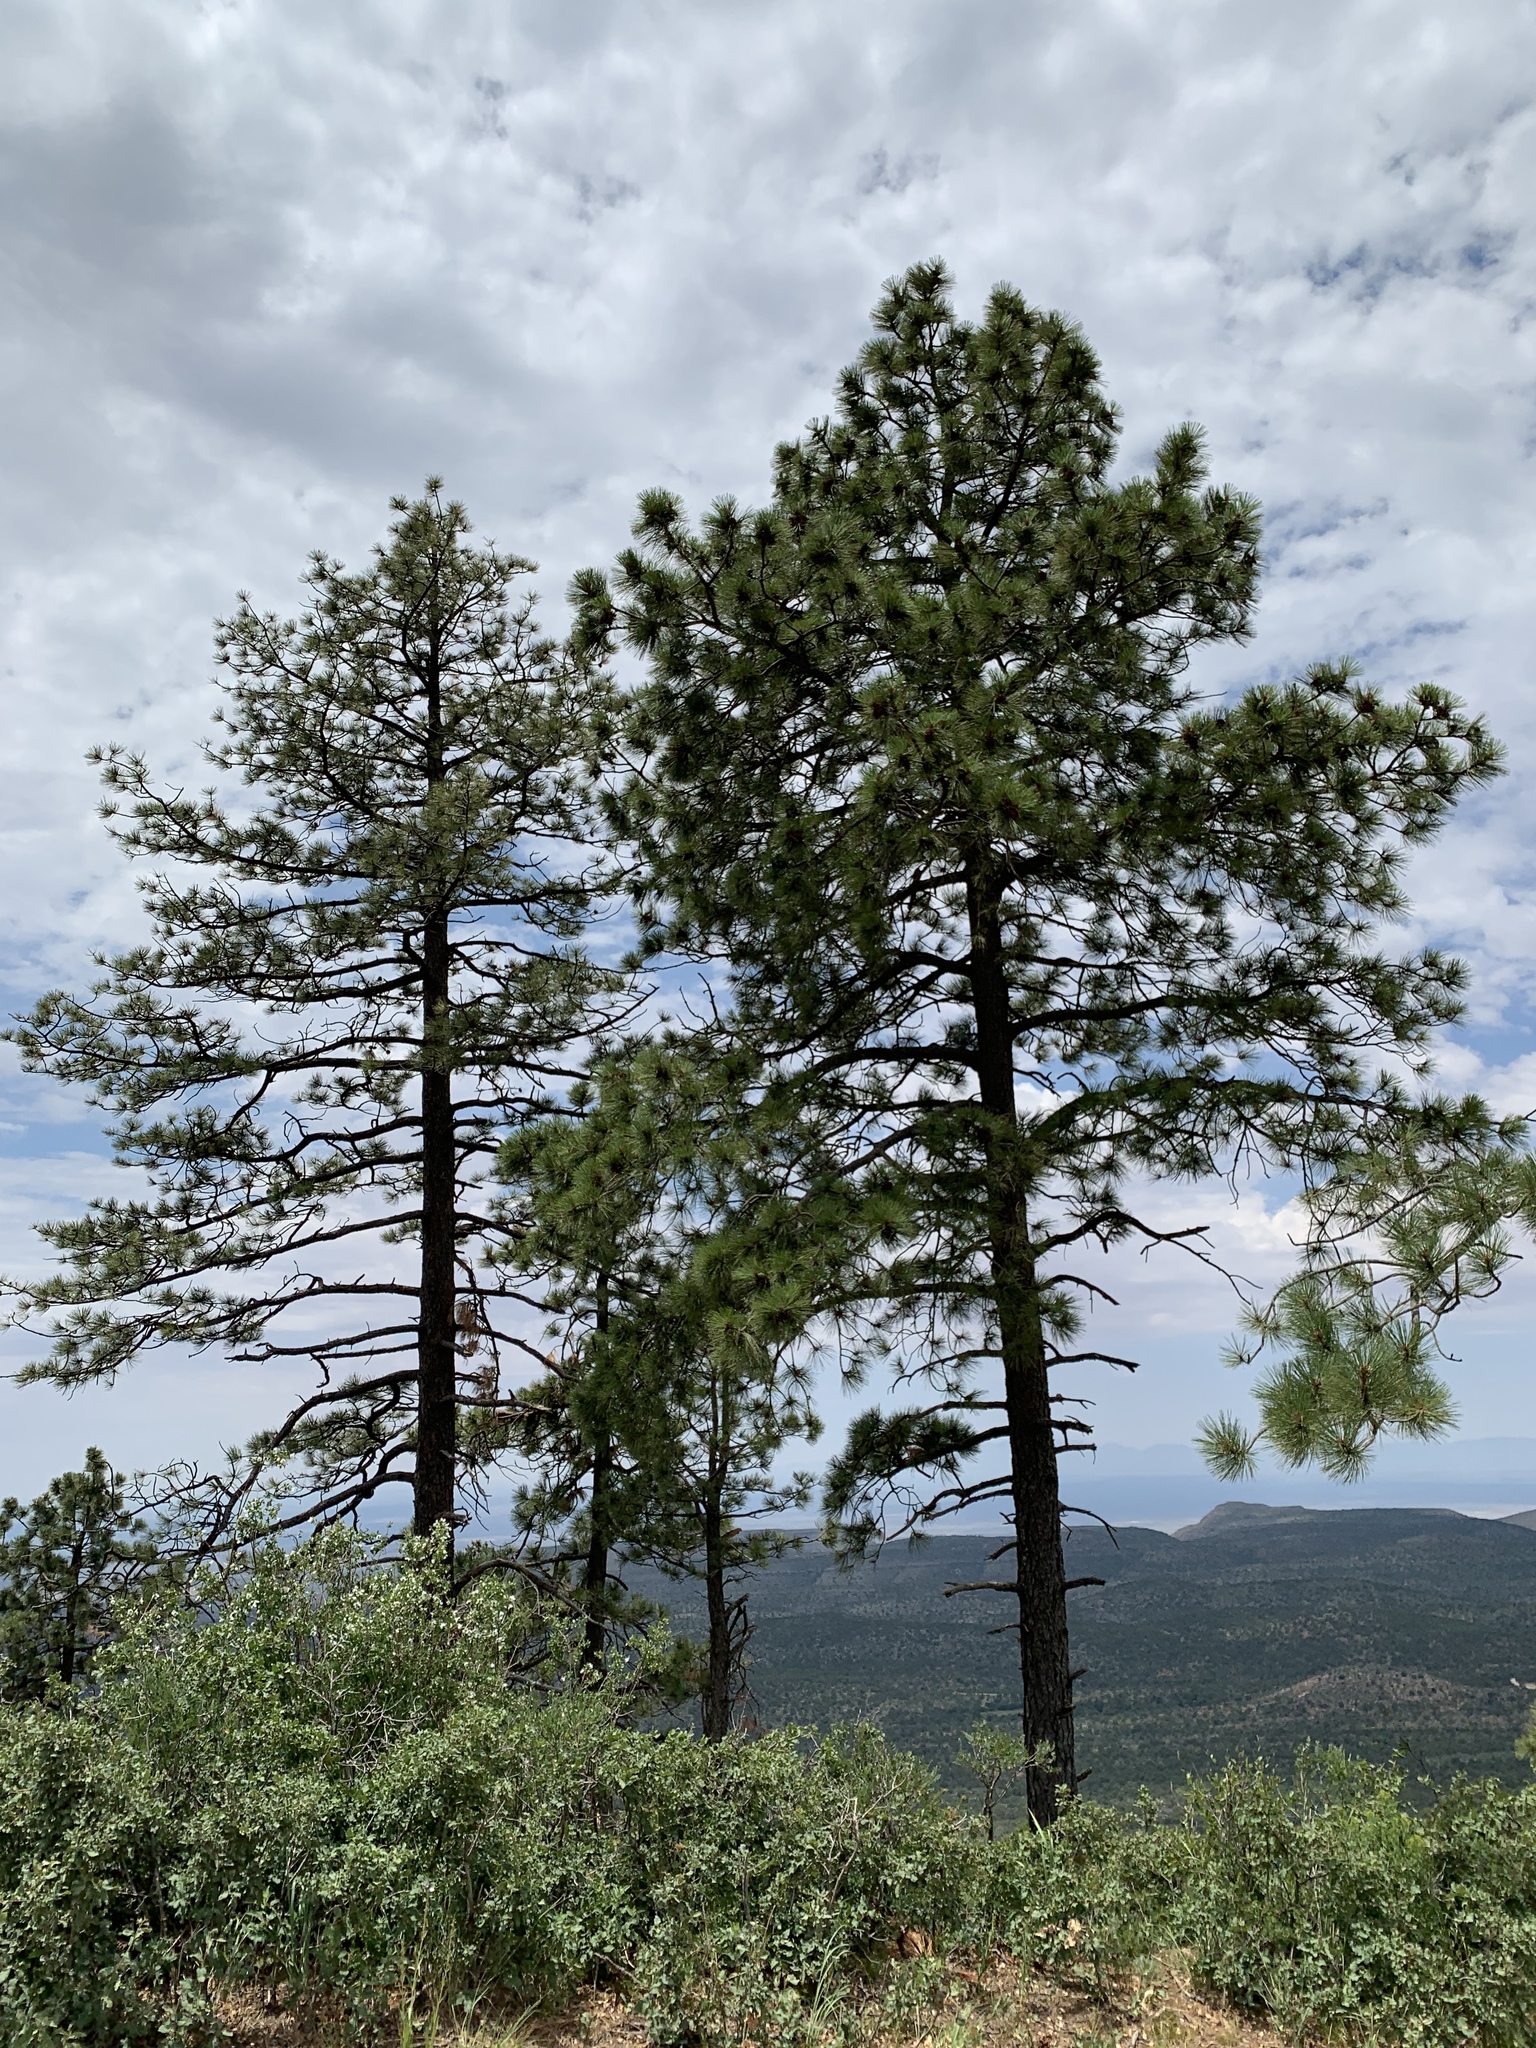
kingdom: Plantae
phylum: Tracheophyta
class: Pinopsida
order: Pinales
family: Pinaceae
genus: Pinus
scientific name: Pinus ponderosa
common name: Western yellow-pine
